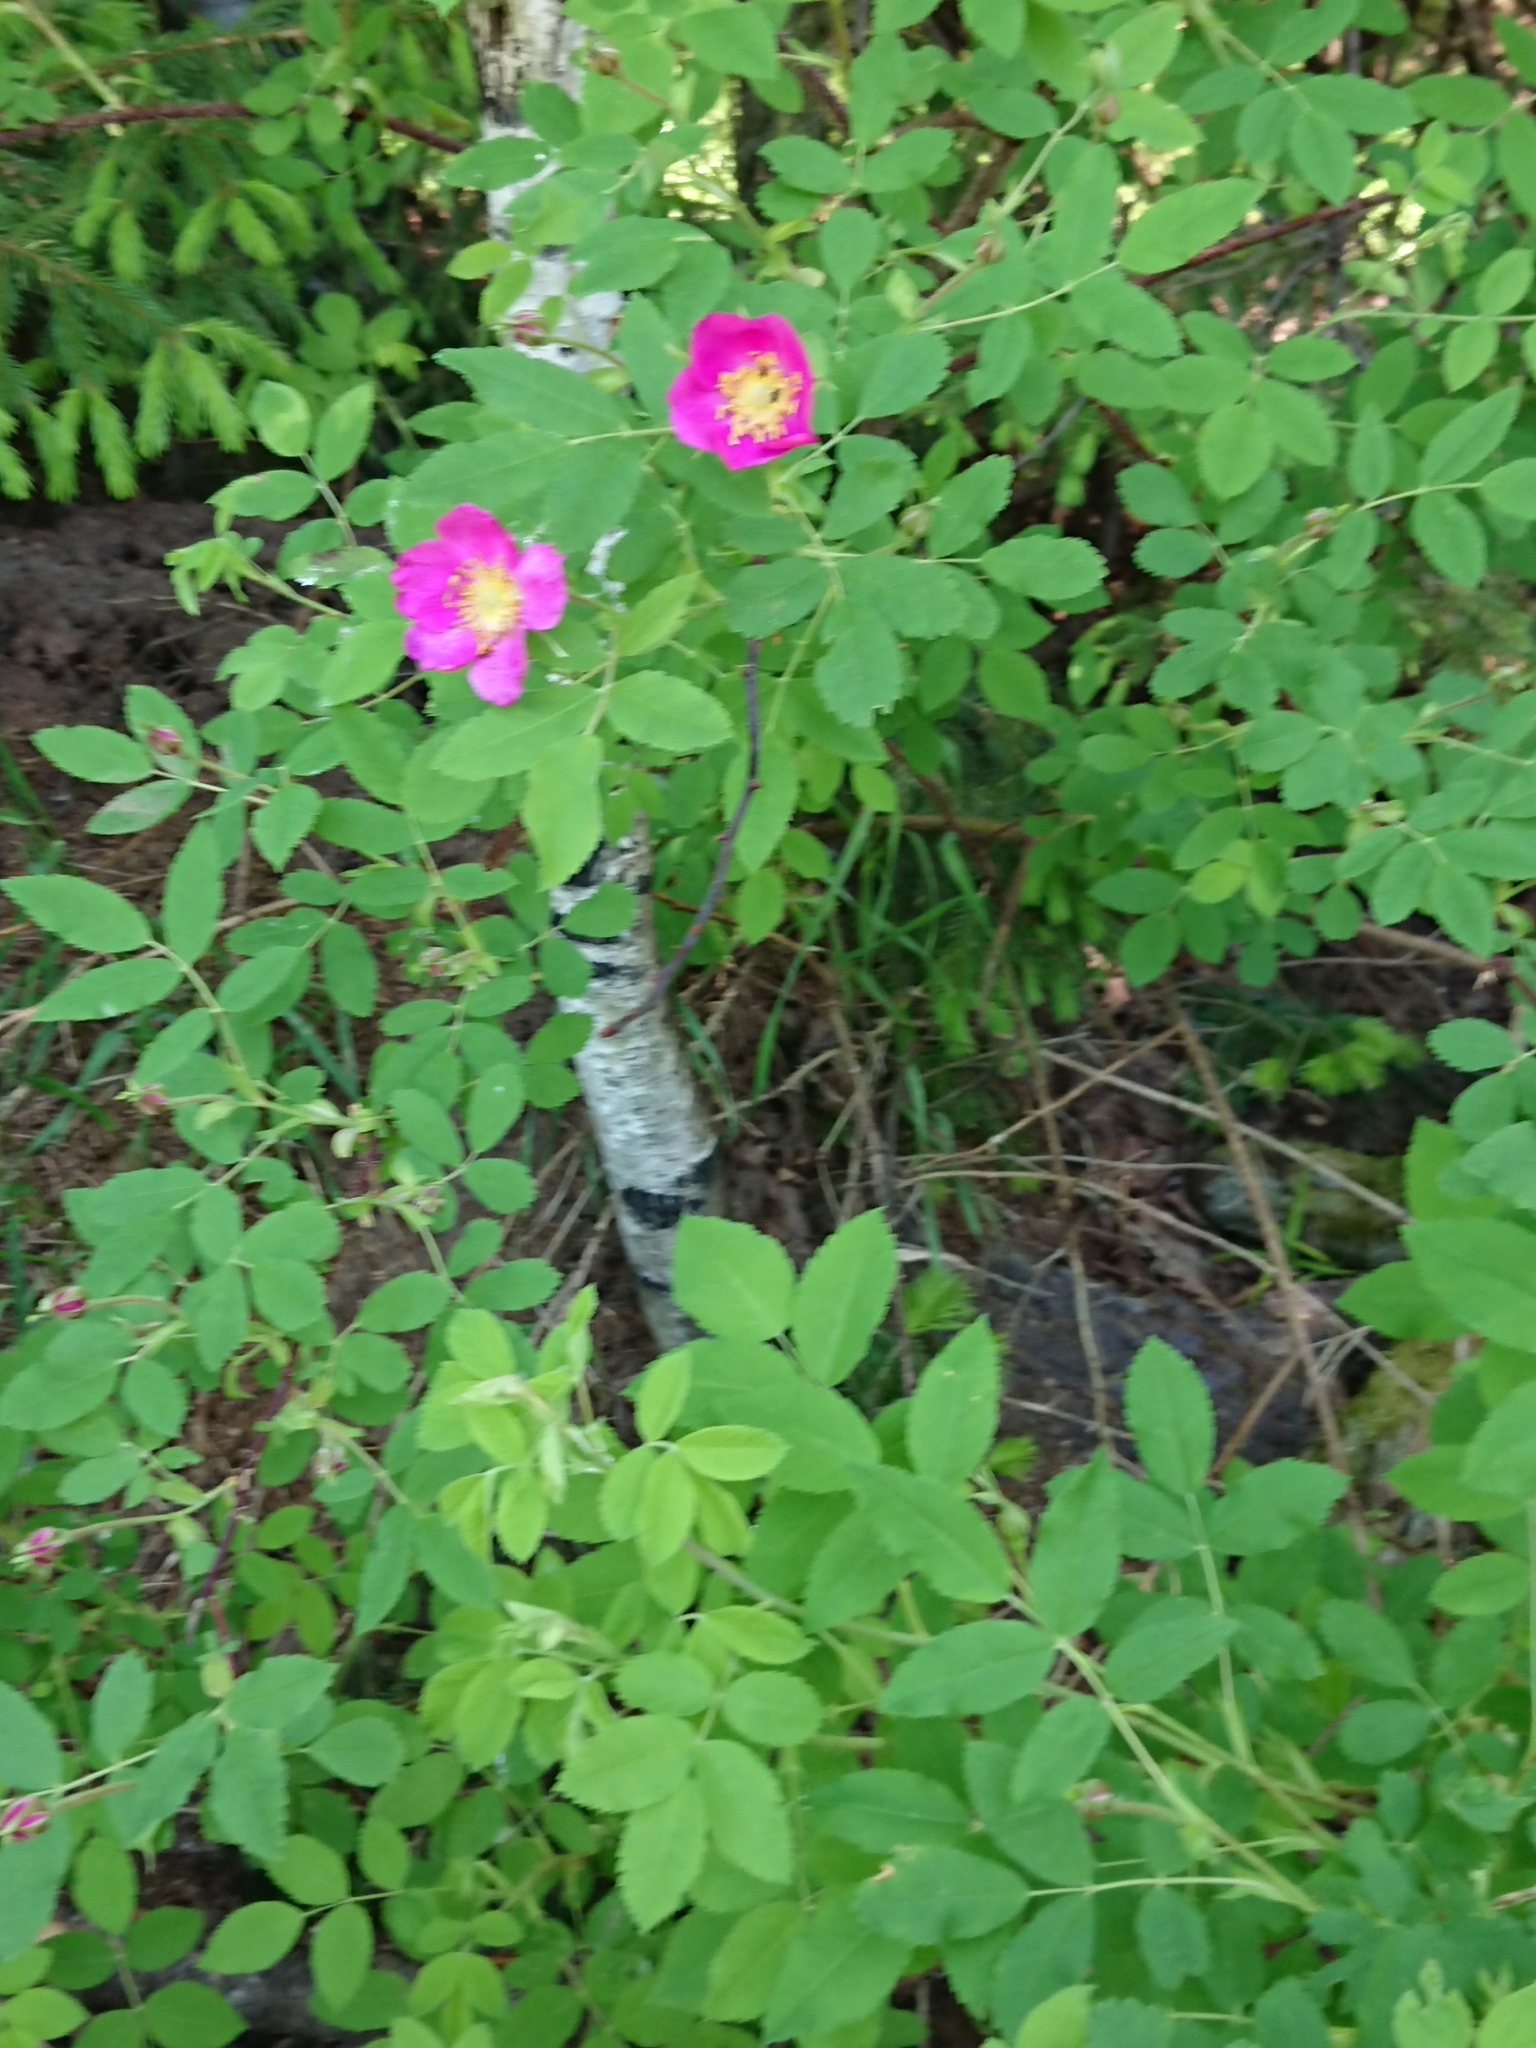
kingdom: Plantae
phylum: Tracheophyta
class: Magnoliopsida
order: Rosales
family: Rosaceae
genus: Rosa
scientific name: Rosa
